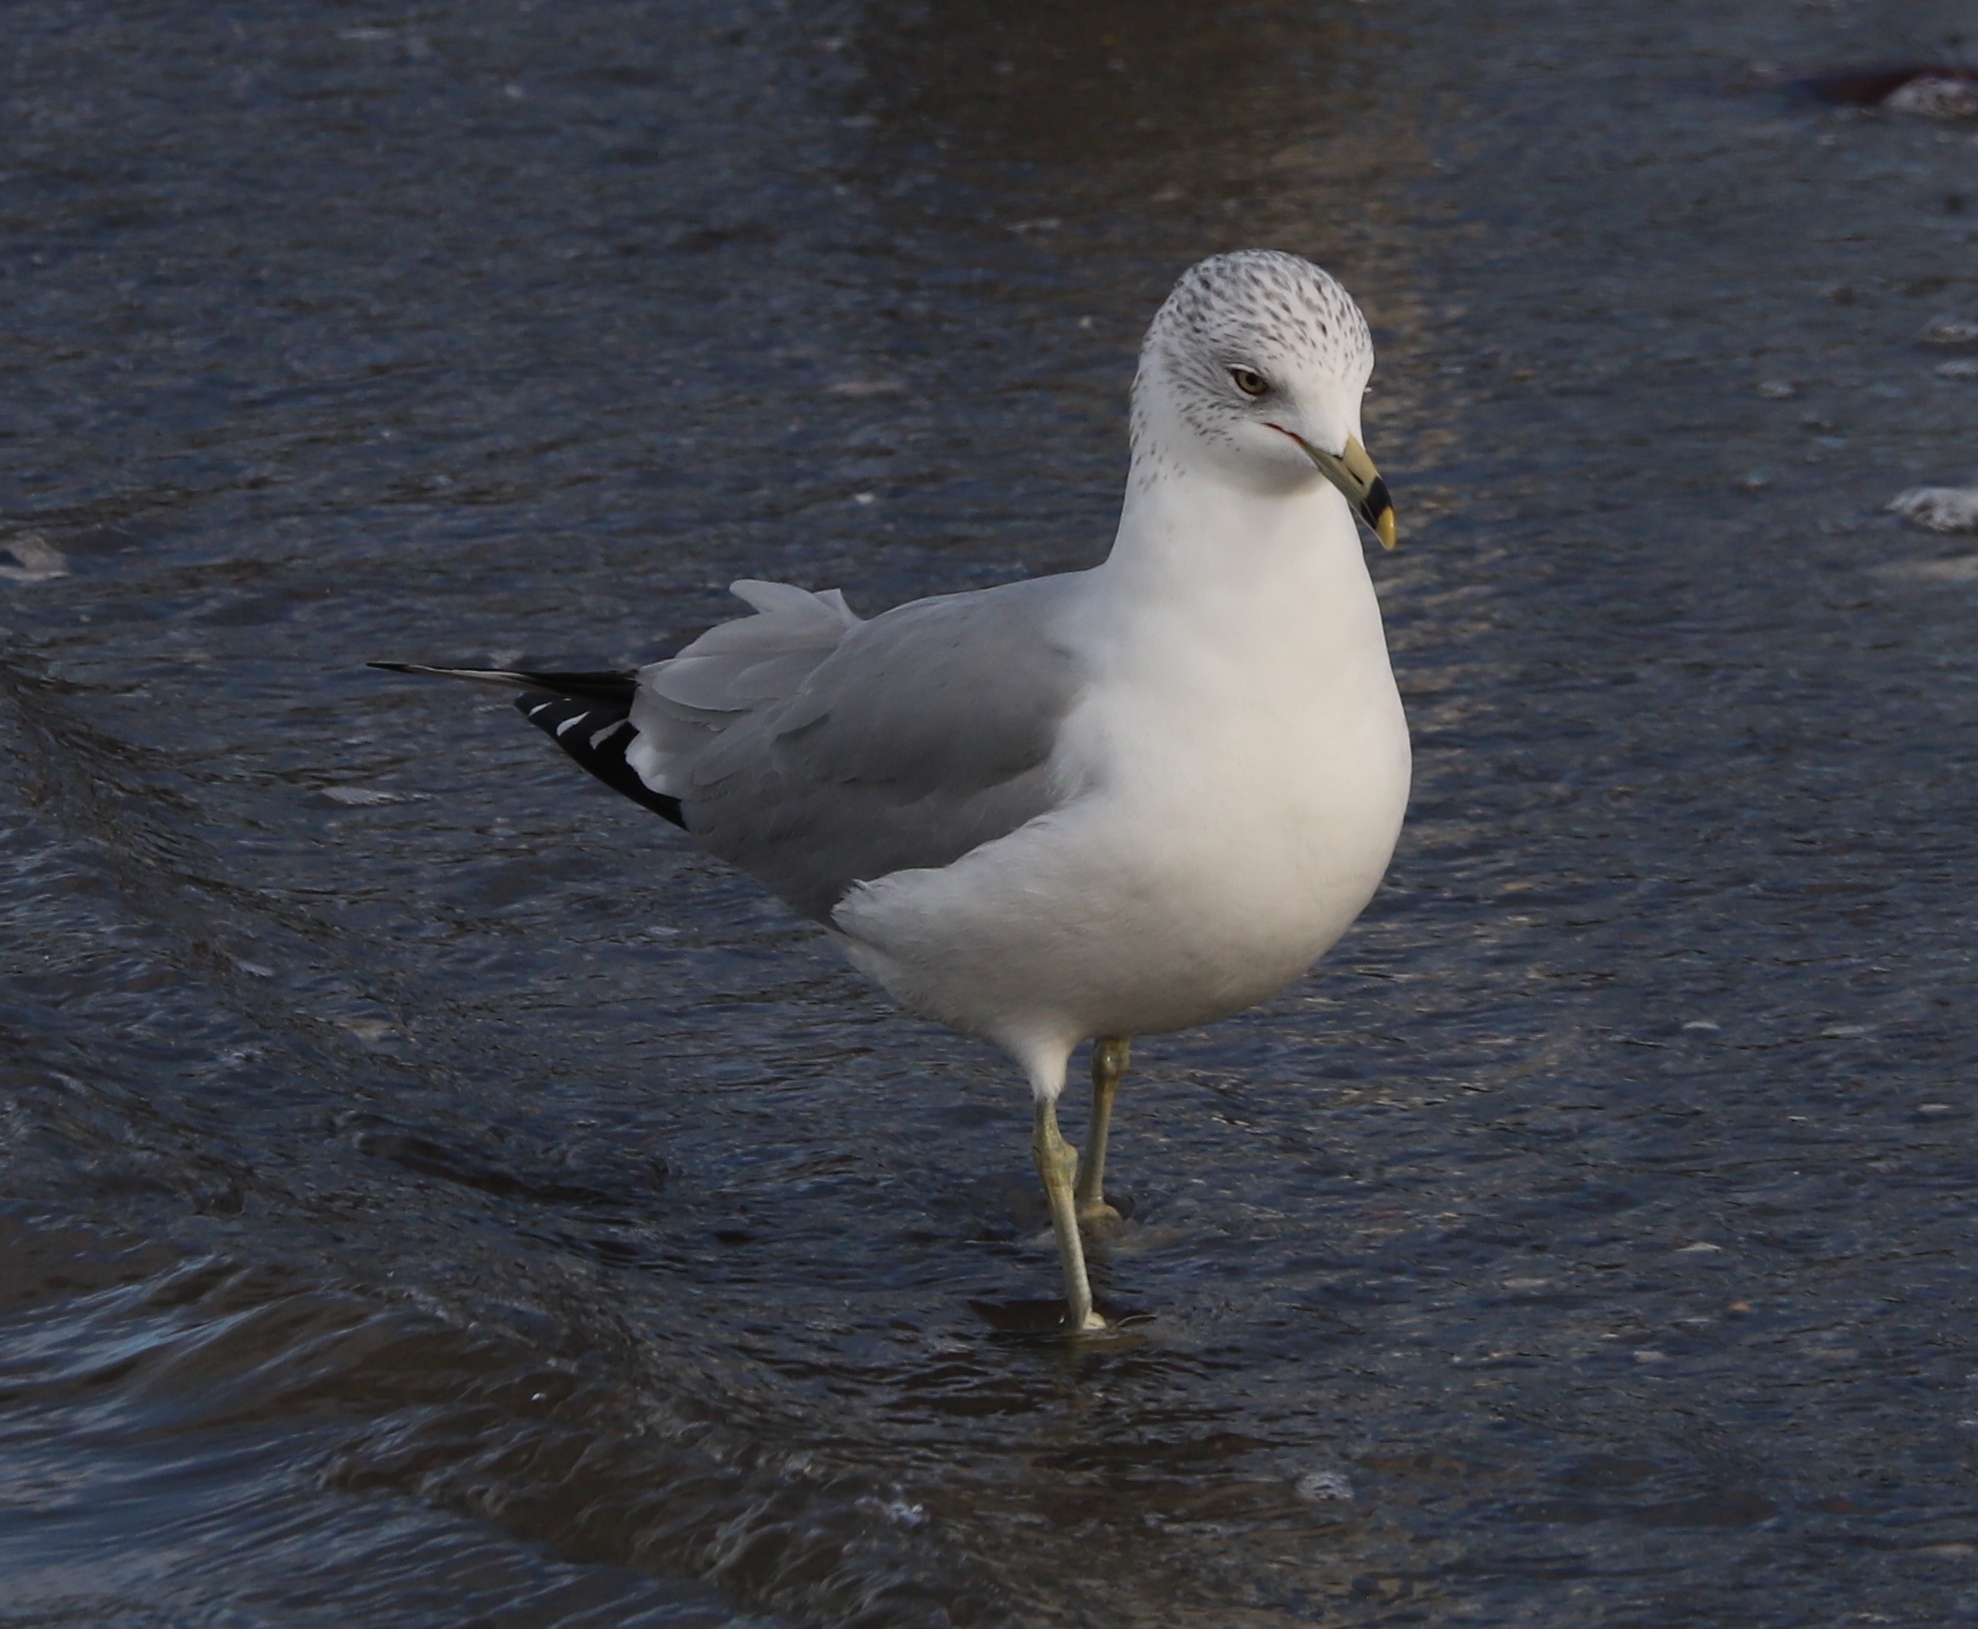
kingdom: Animalia
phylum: Chordata
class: Aves
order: Charadriiformes
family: Laridae
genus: Larus
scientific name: Larus delawarensis
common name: Ring-billed gull
